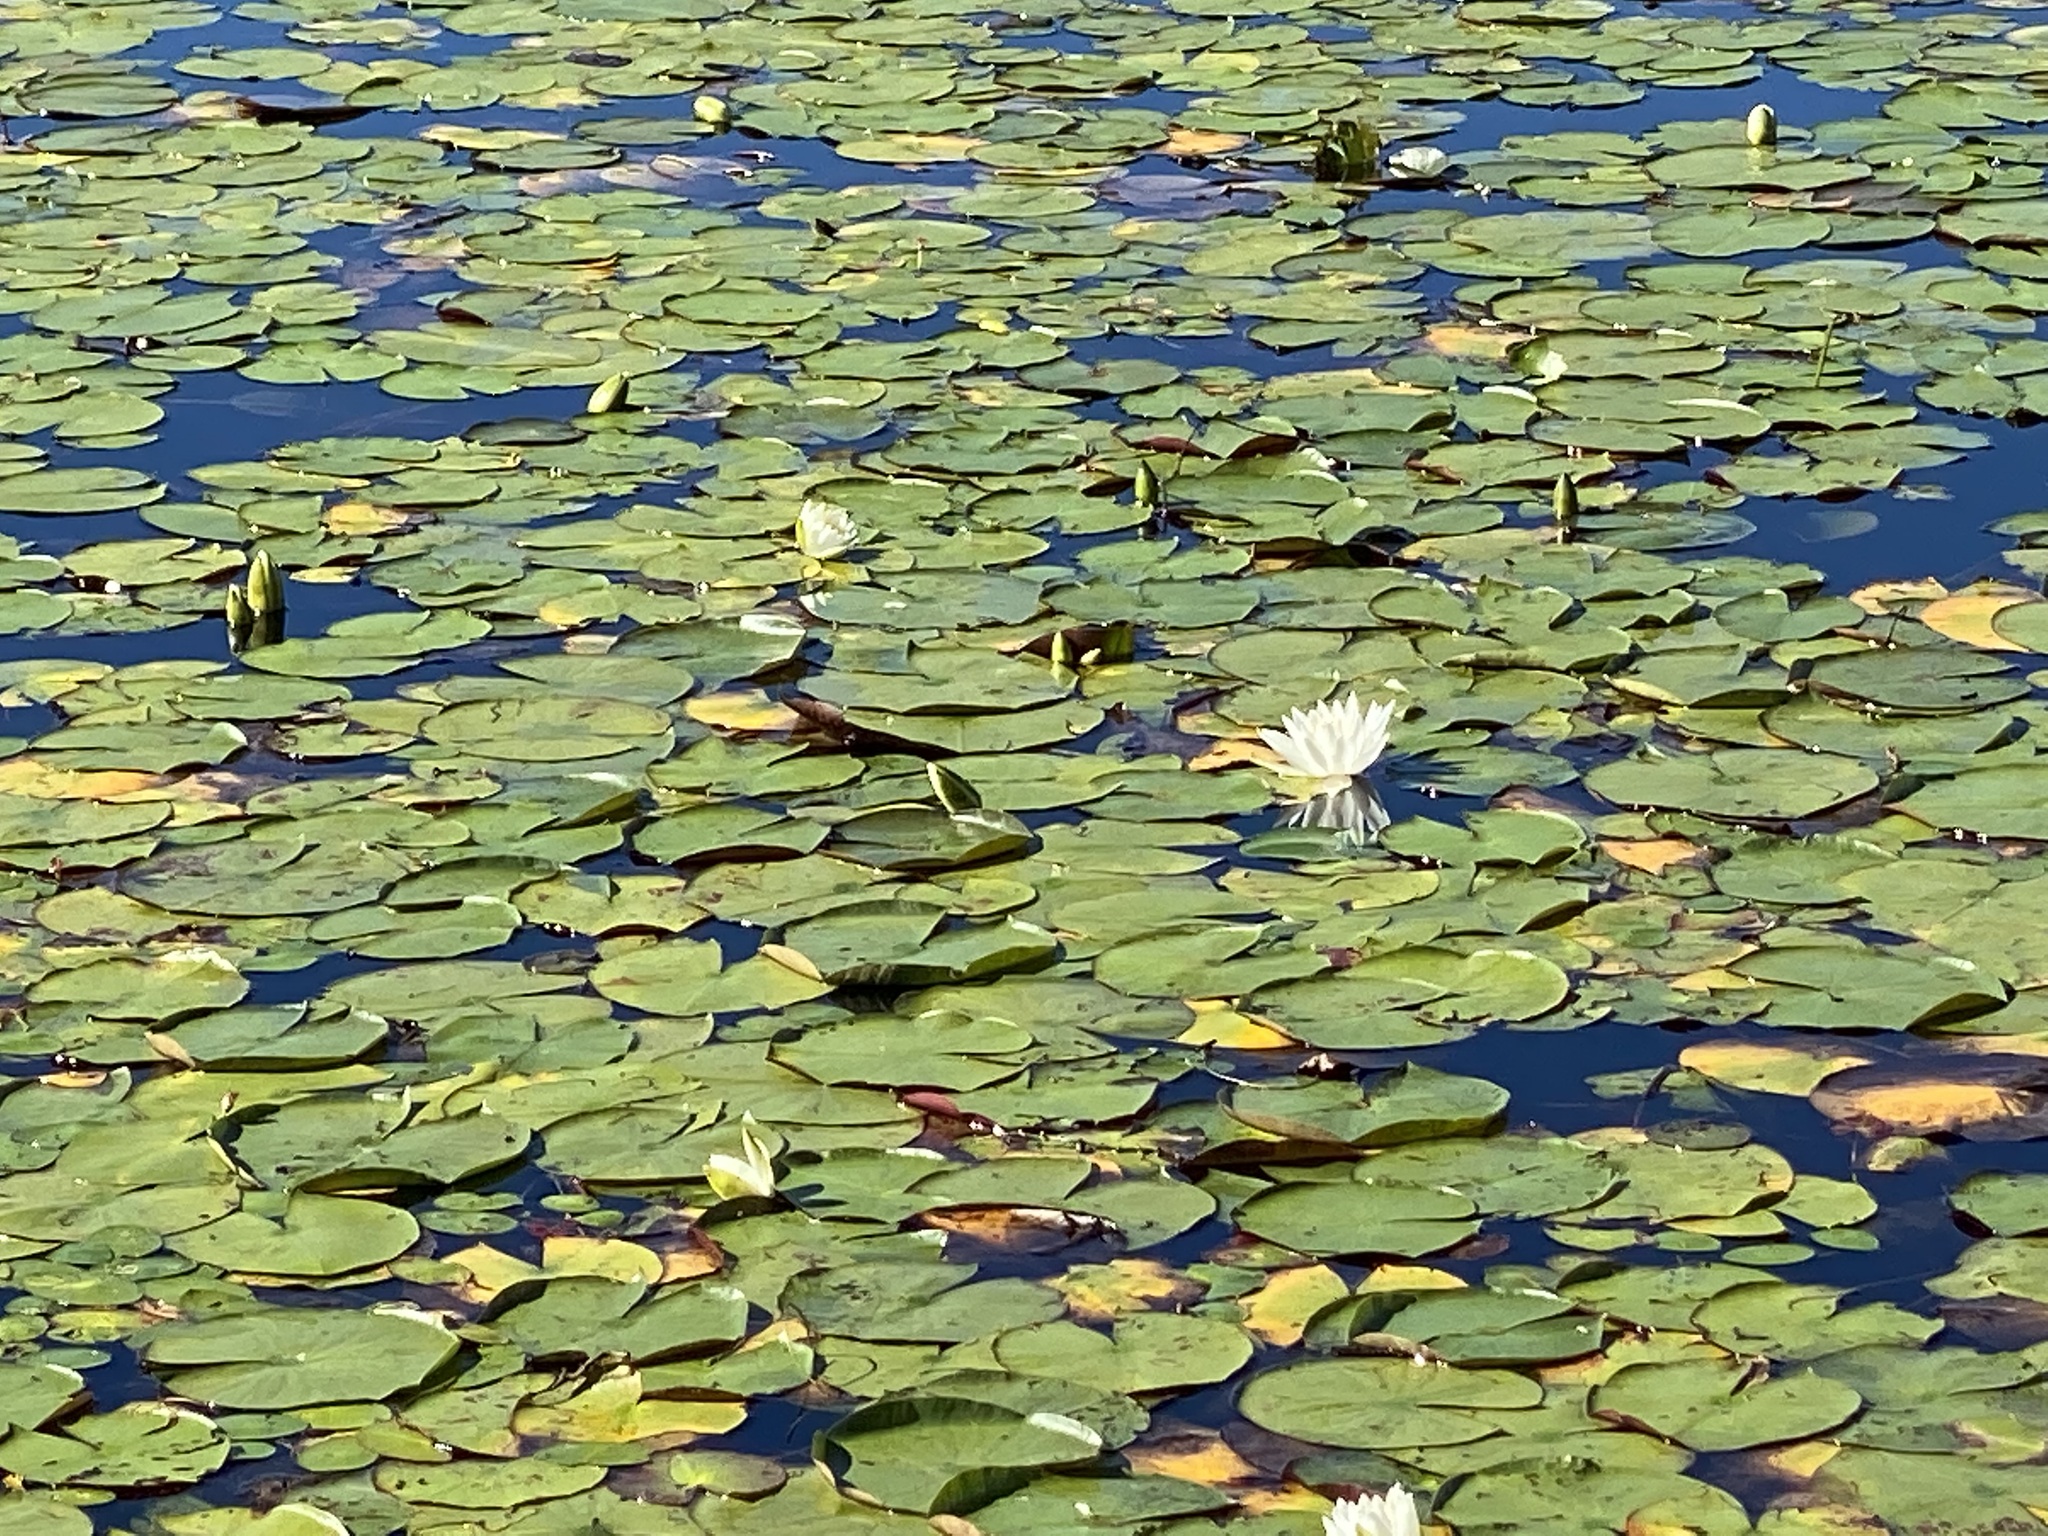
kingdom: Plantae
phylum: Tracheophyta
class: Magnoliopsida
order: Nymphaeales
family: Nymphaeaceae
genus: Nymphaea
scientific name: Nymphaea odorata
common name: Fragrant water-lily
